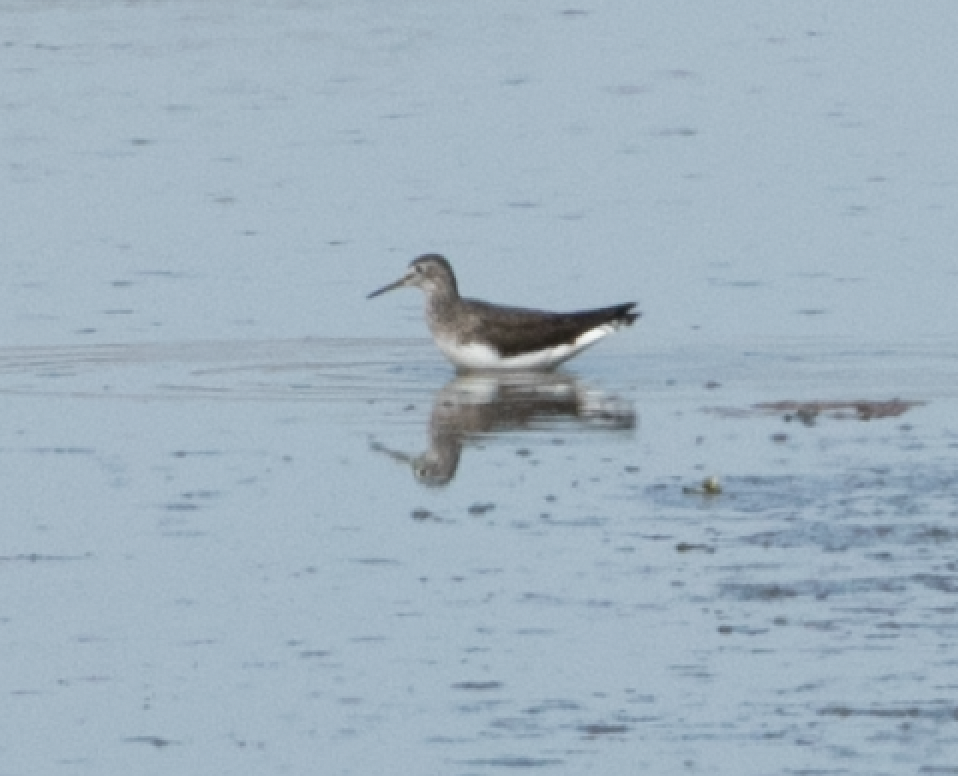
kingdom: Animalia
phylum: Chordata
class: Aves
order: Charadriiformes
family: Scolopacidae
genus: Tringa
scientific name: Tringa ochropus
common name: Green sandpiper
